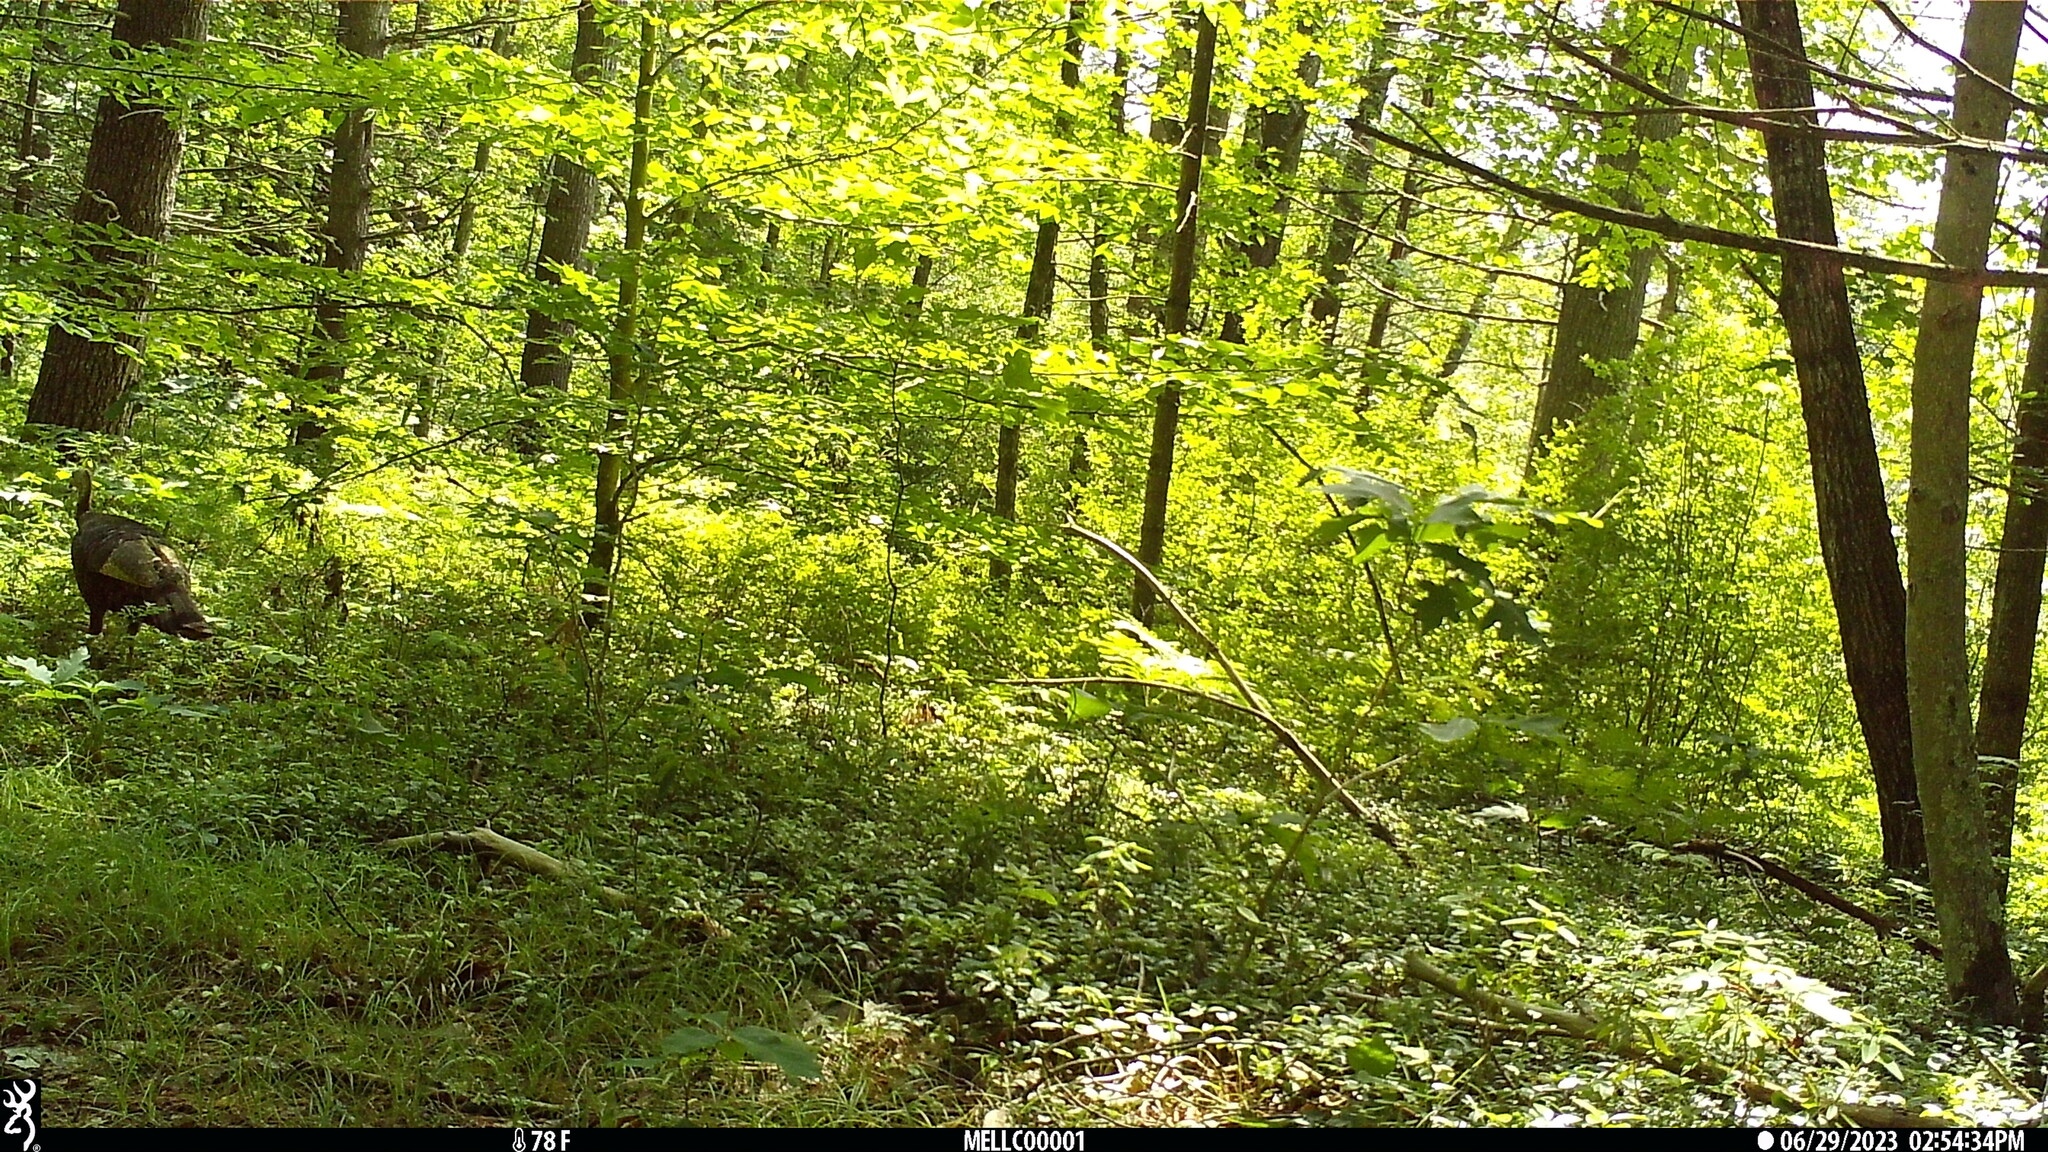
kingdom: Animalia
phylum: Chordata
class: Aves
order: Galliformes
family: Phasianidae
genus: Meleagris
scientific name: Meleagris gallopavo
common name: Wild turkey
